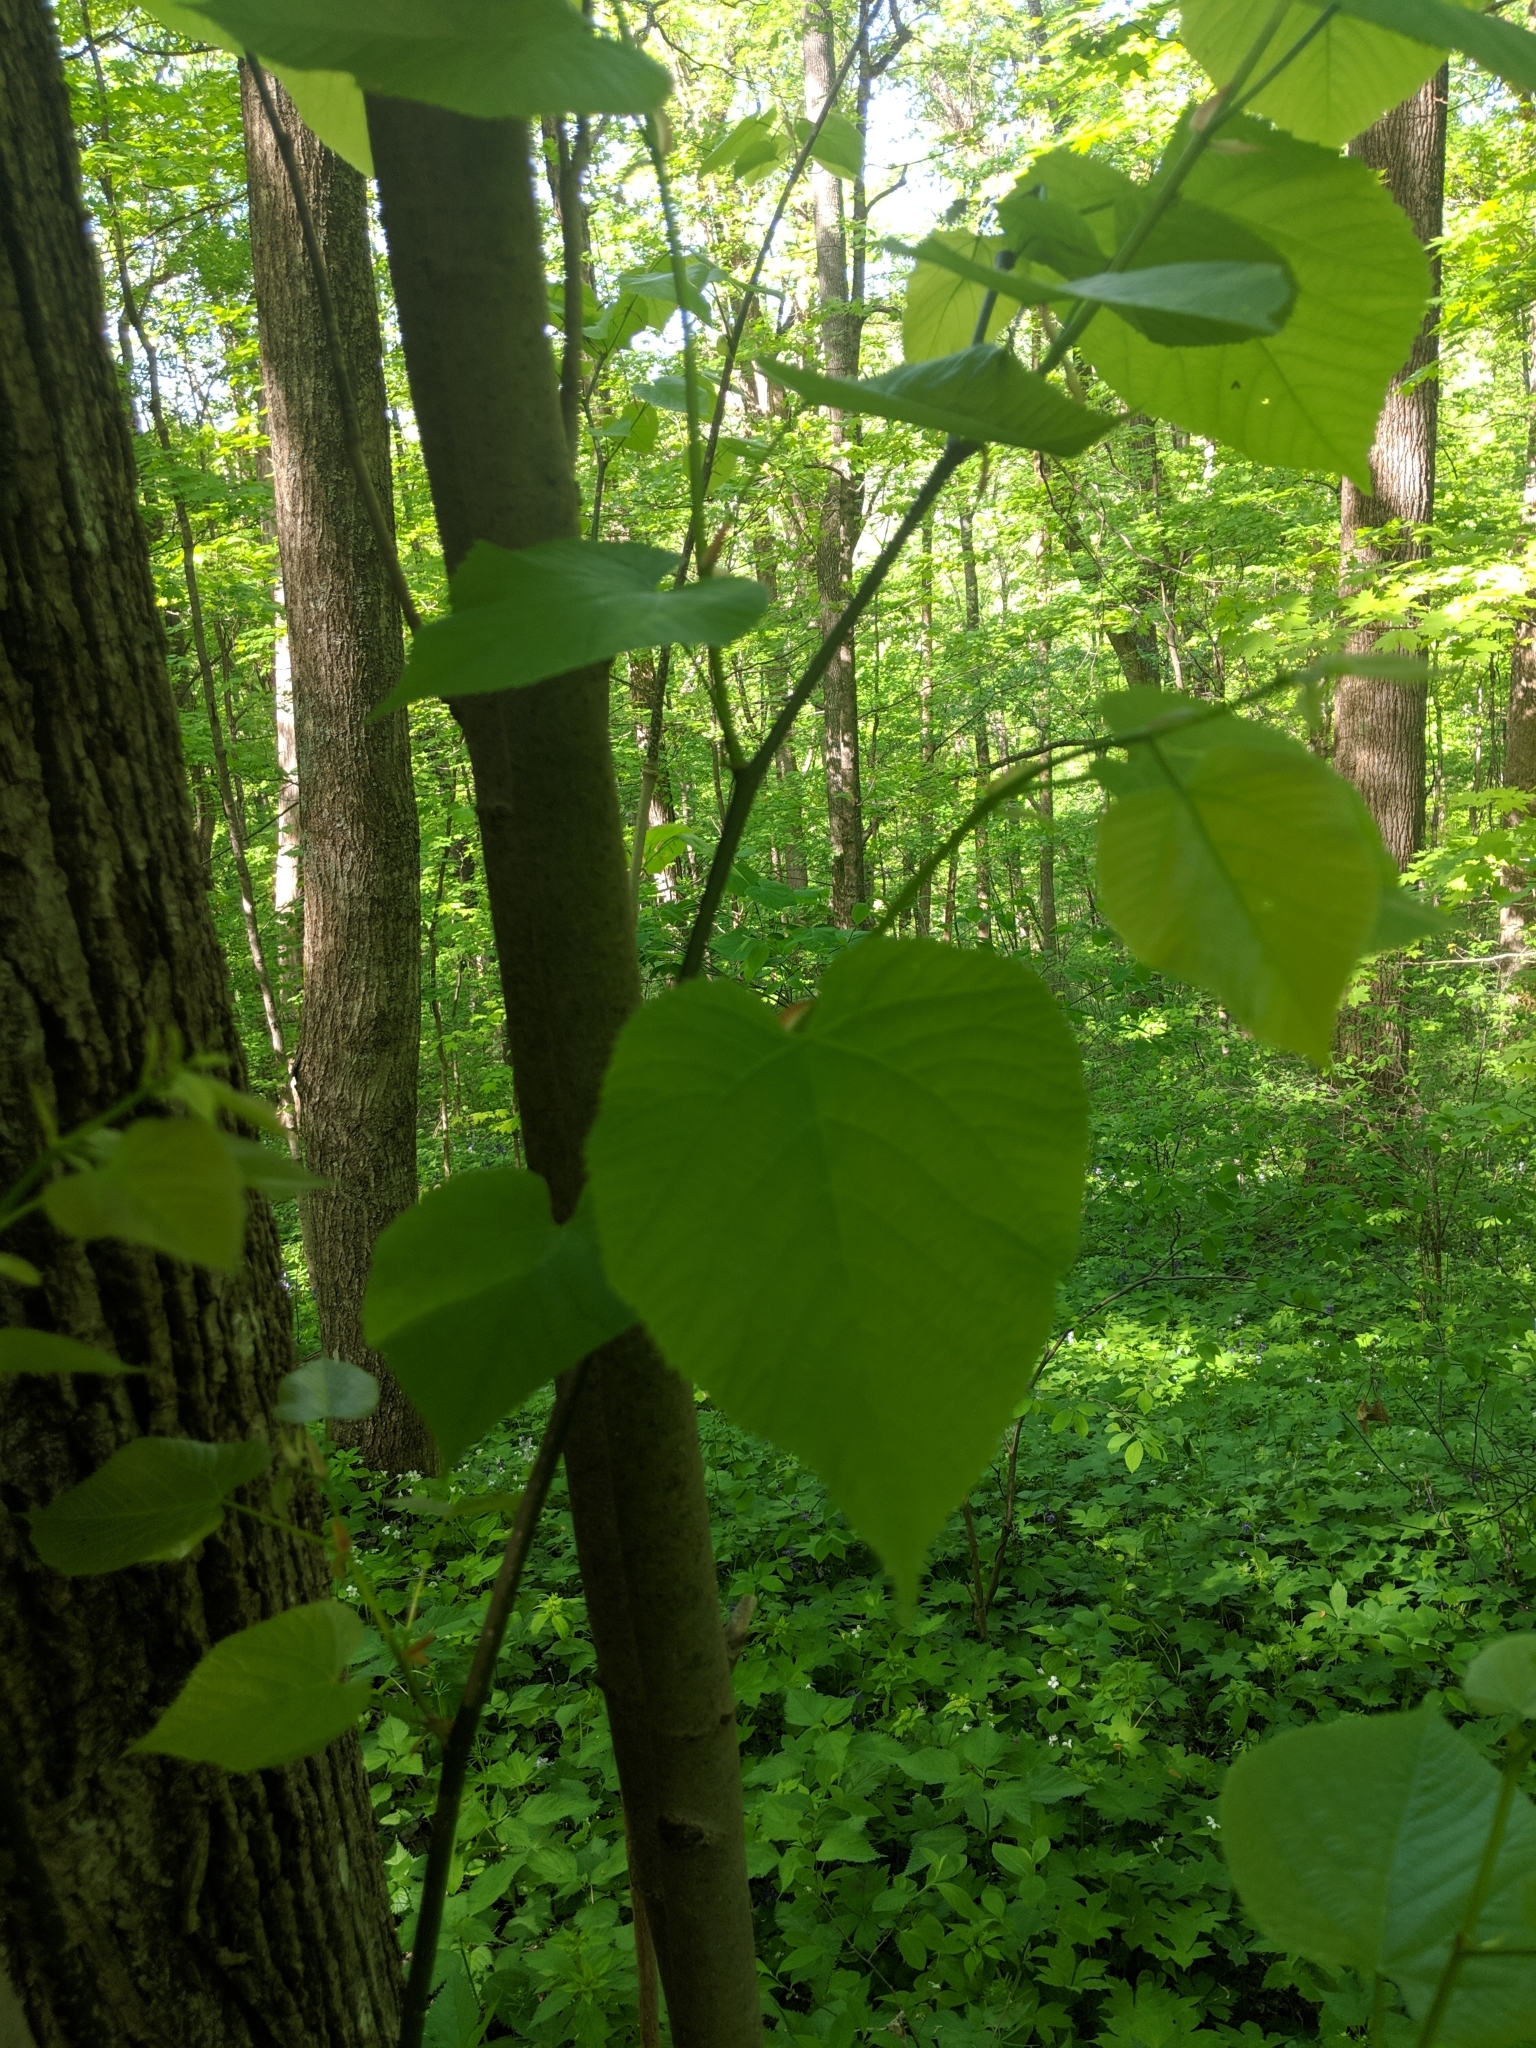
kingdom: Plantae
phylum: Tracheophyta
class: Magnoliopsida
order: Malvales
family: Malvaceae
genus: Tilia
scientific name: Tilia americana
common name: Basswood
